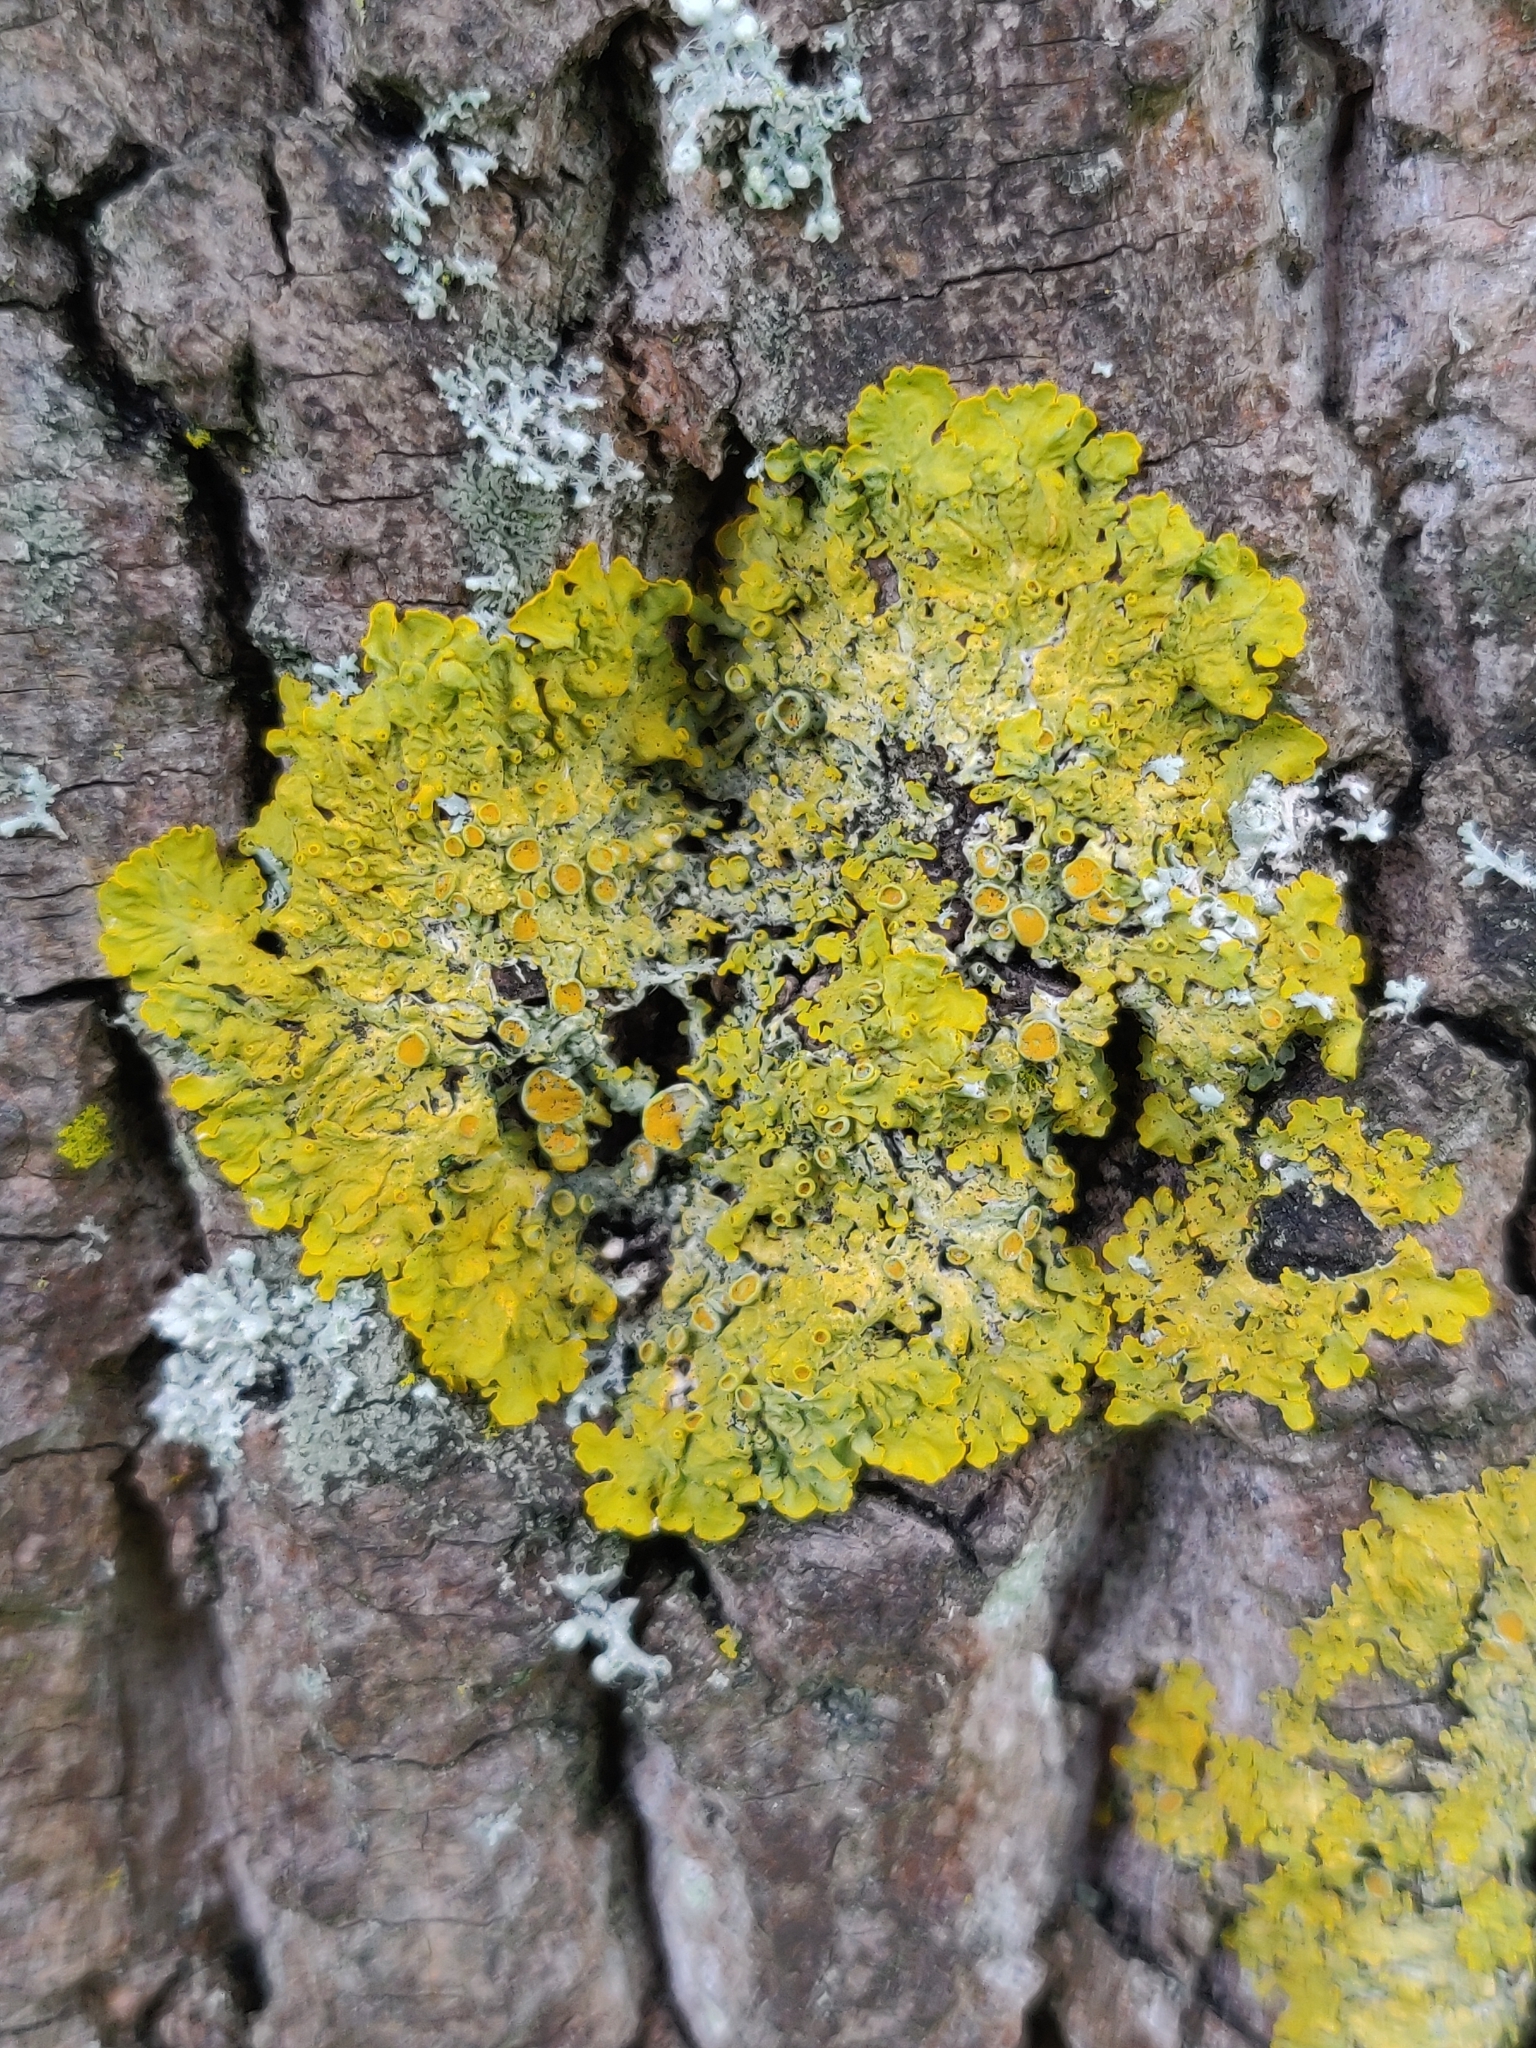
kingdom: Fungi
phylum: Ascomycota
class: Lecanoromycetes
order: Teloschistales
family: Teloschistaceae
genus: Xanthoria
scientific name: Xanthoria parietina
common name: Common orange lichen
